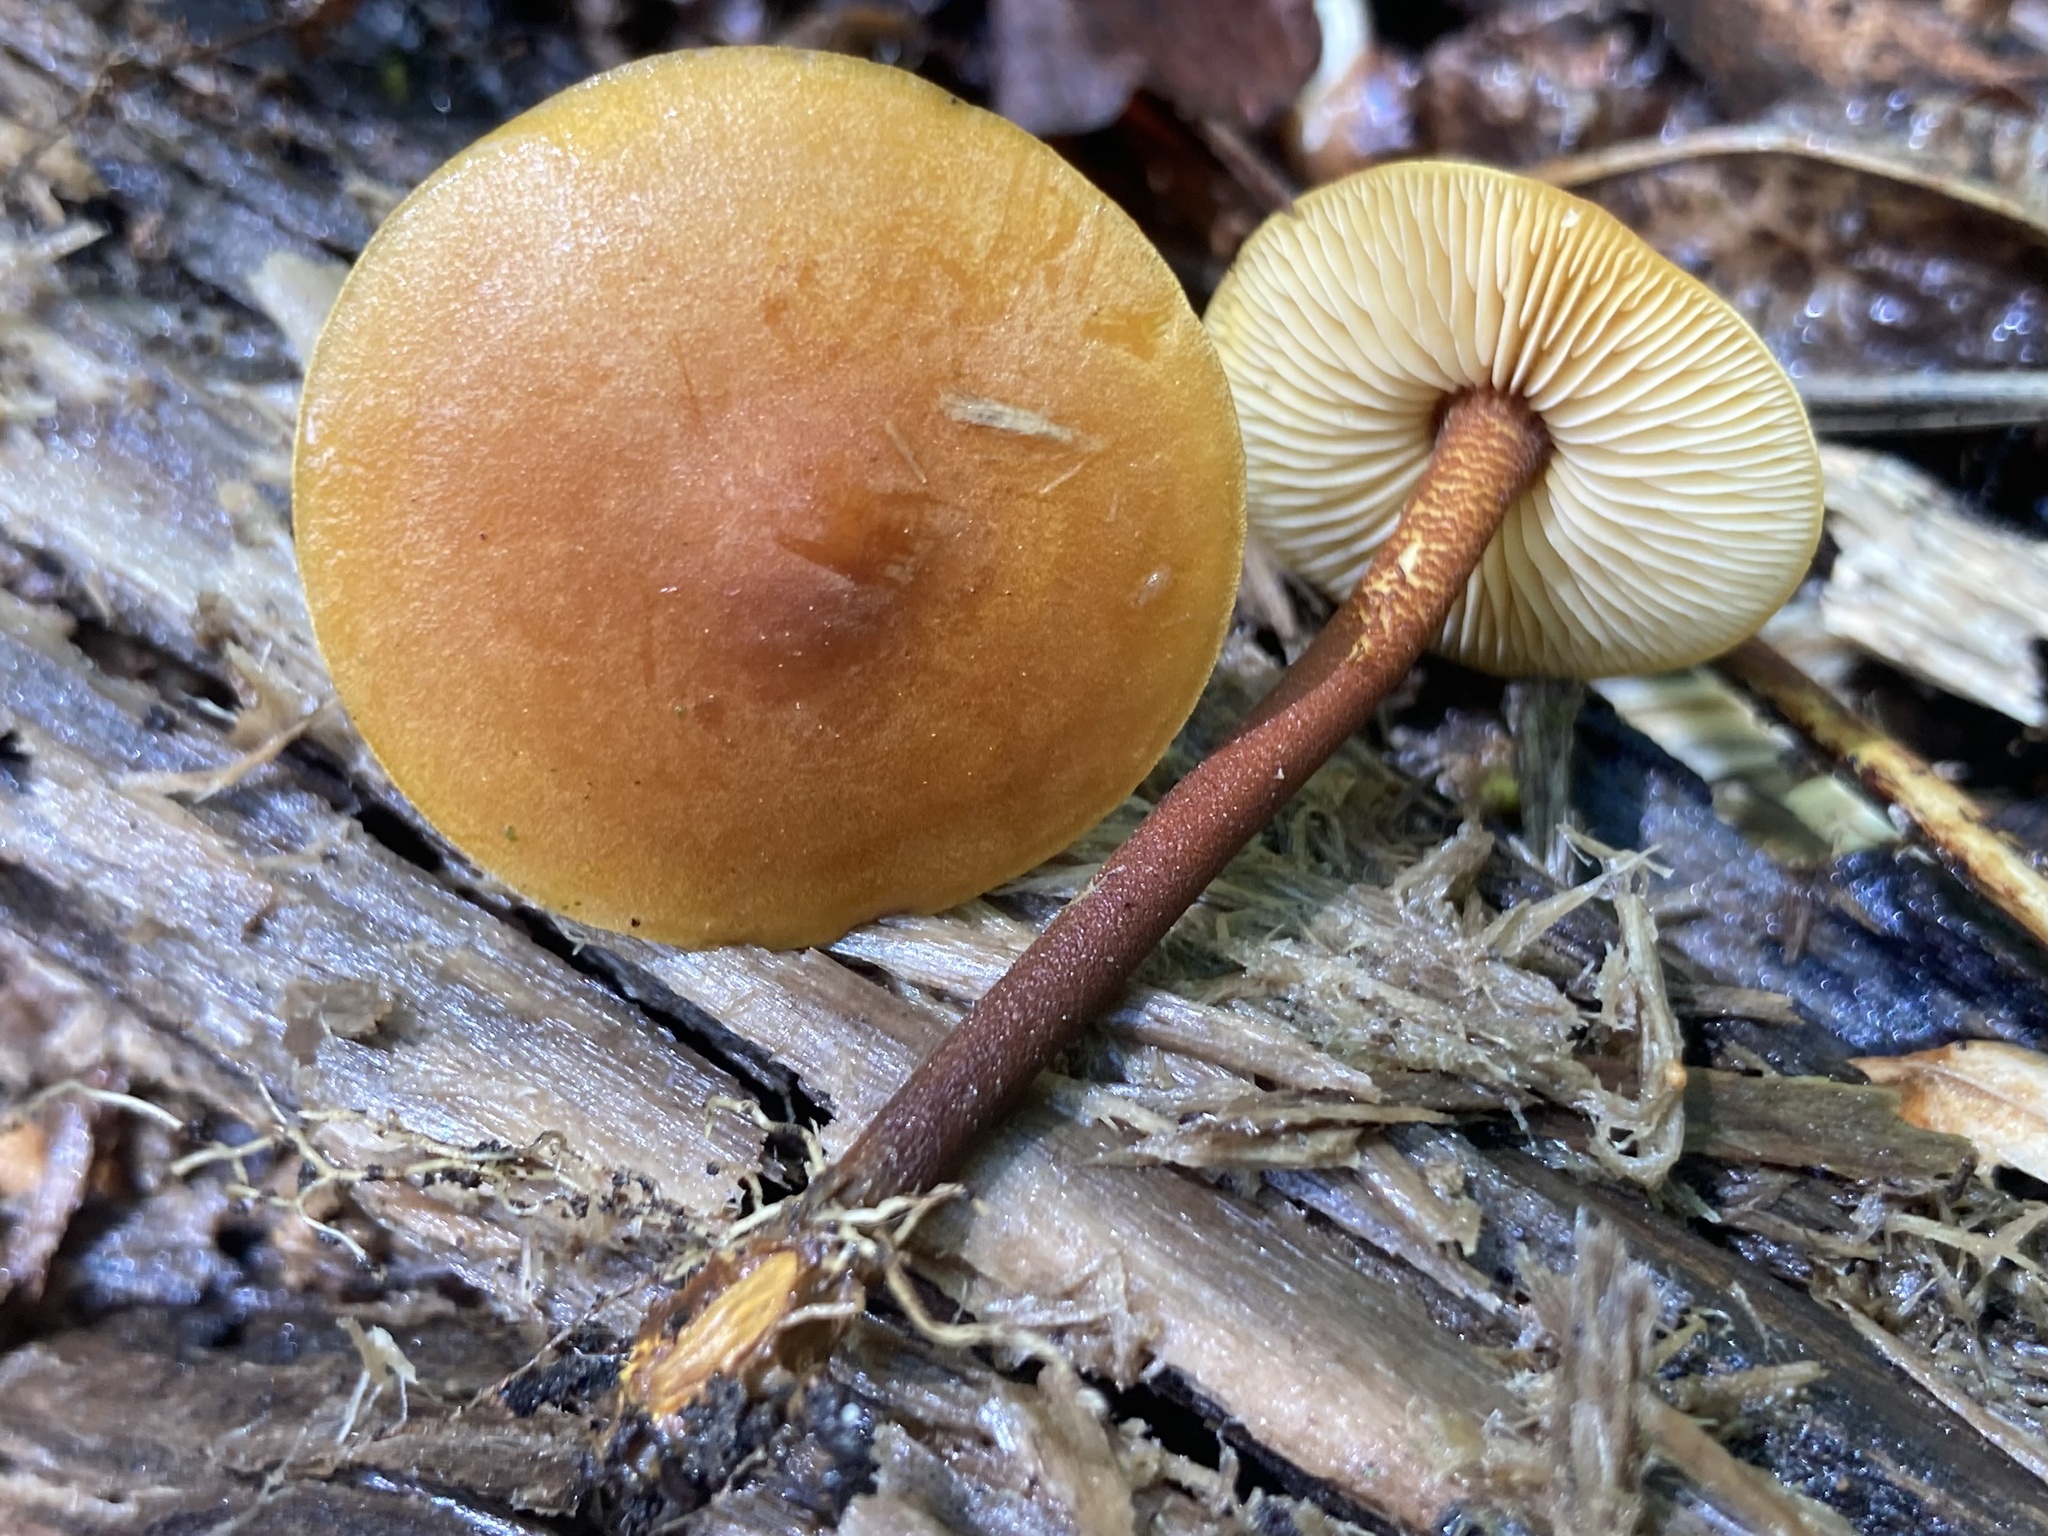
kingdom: Fungi
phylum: Basidiomycota
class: Agaricomycetes
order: Agaricales
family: Mycenaceae
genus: Xeromphalina
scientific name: Xeromphalina tenuipes
